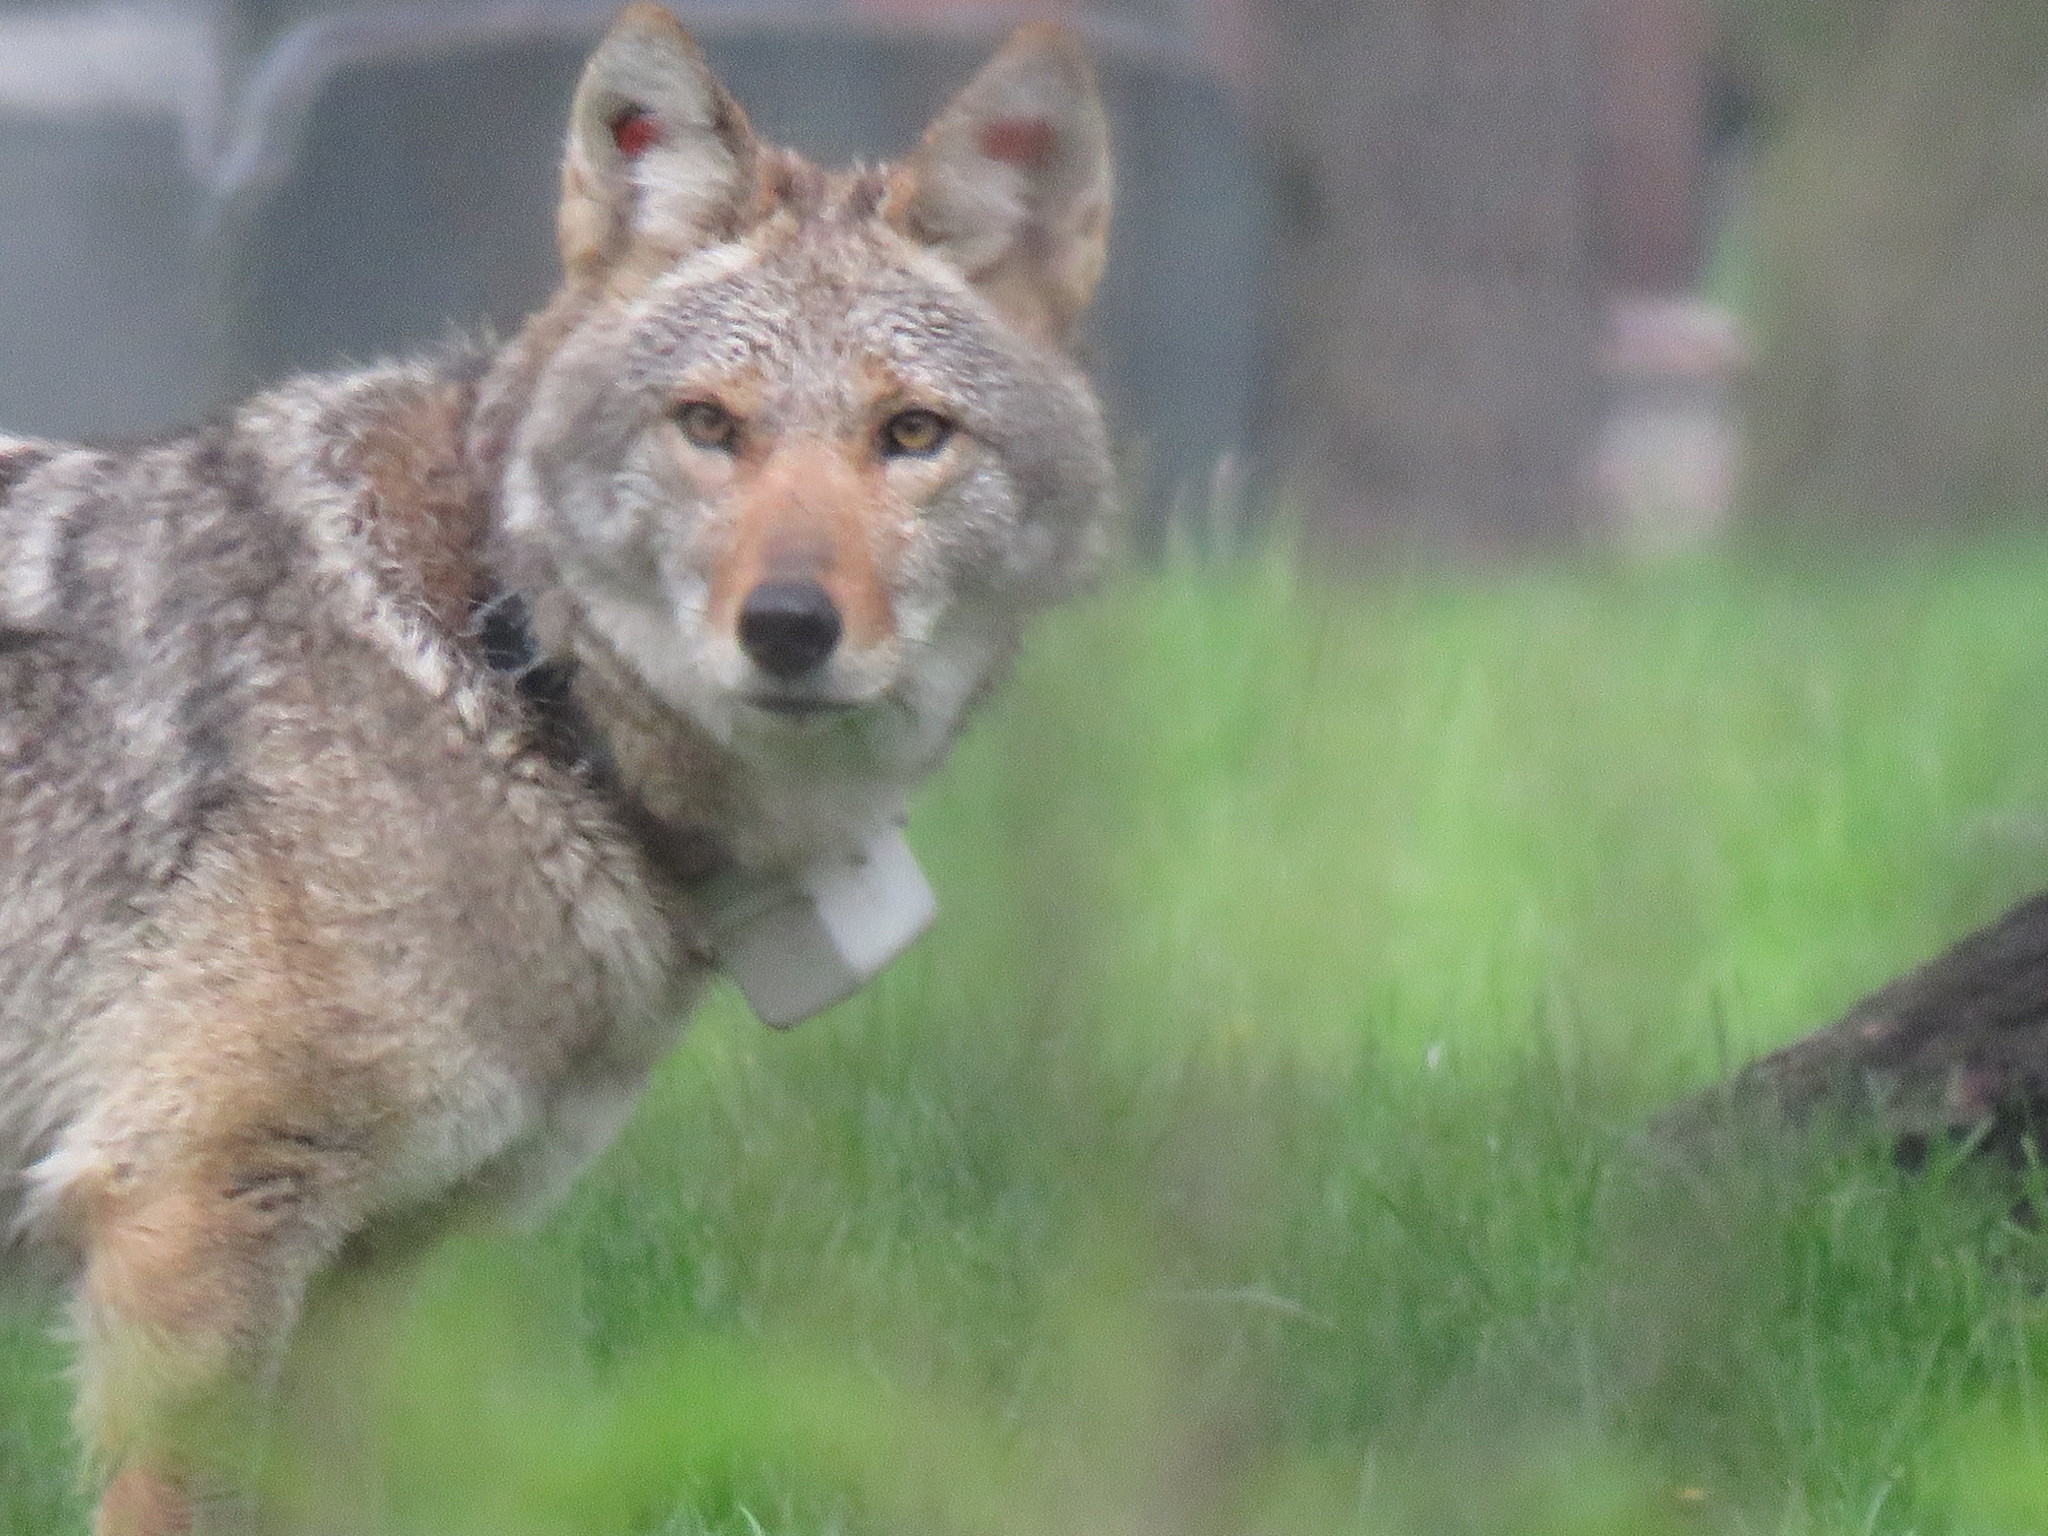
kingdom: Animalia
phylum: Chordata
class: Mammalia
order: Carnivora
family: Canidae
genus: Canis
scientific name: Canis latrans
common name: Coyote
